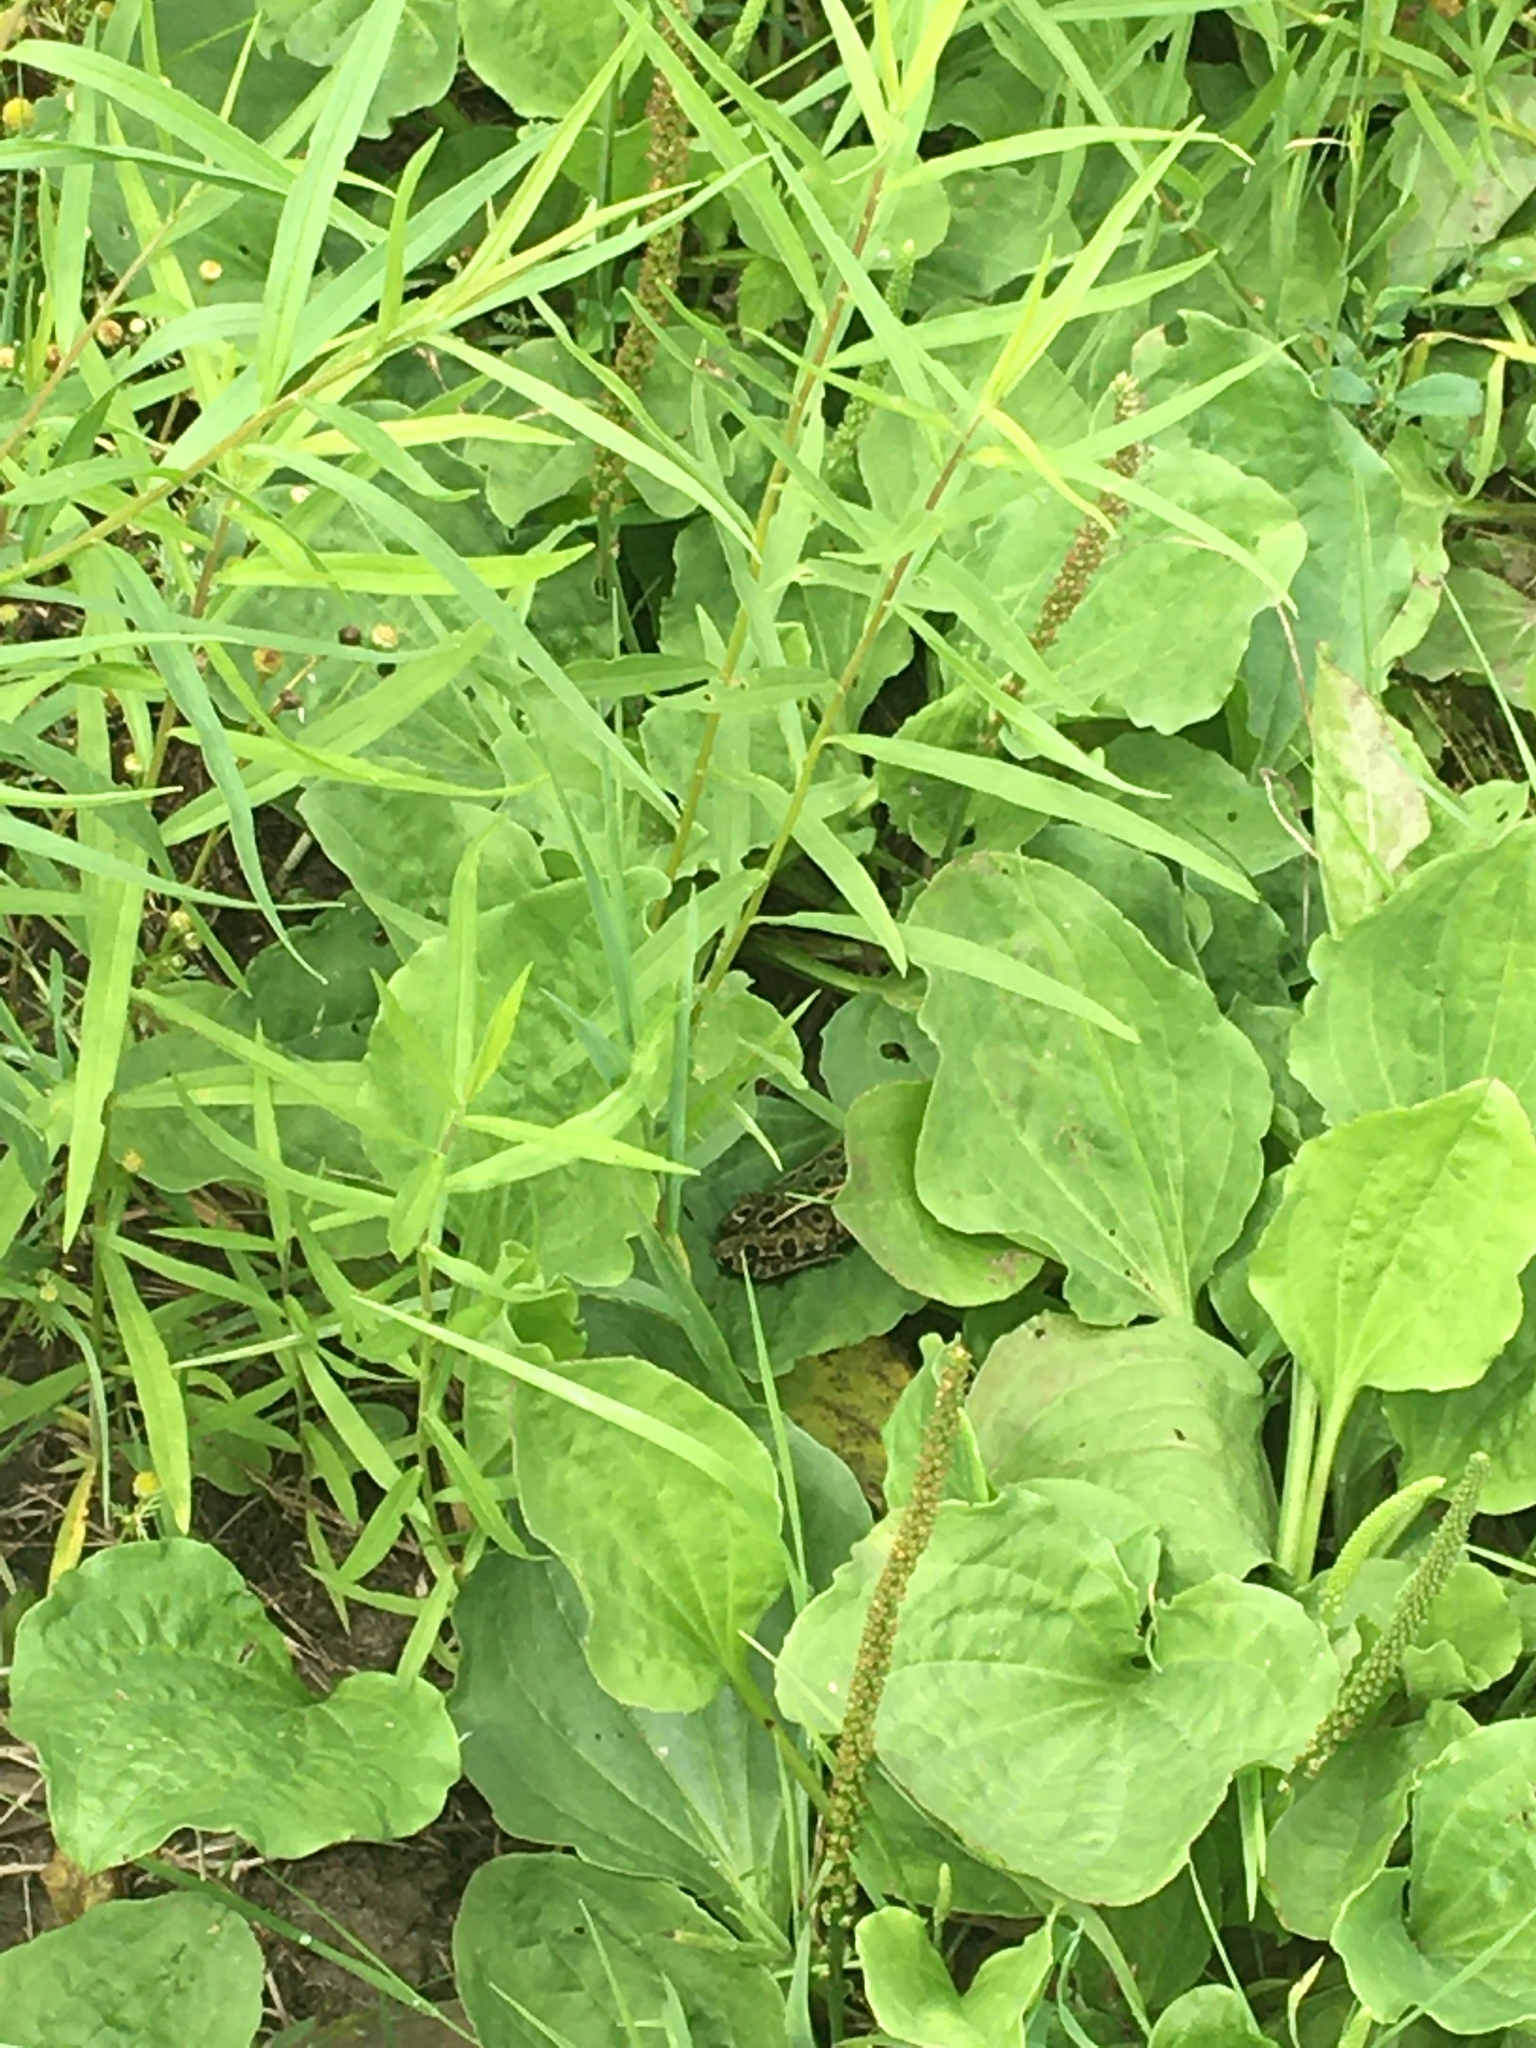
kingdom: Animalia
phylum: Chordata
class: Amphibia
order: Anura
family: Ranidae
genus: Lithobates
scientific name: Lithobates pipiens
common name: Northern leopard frog
